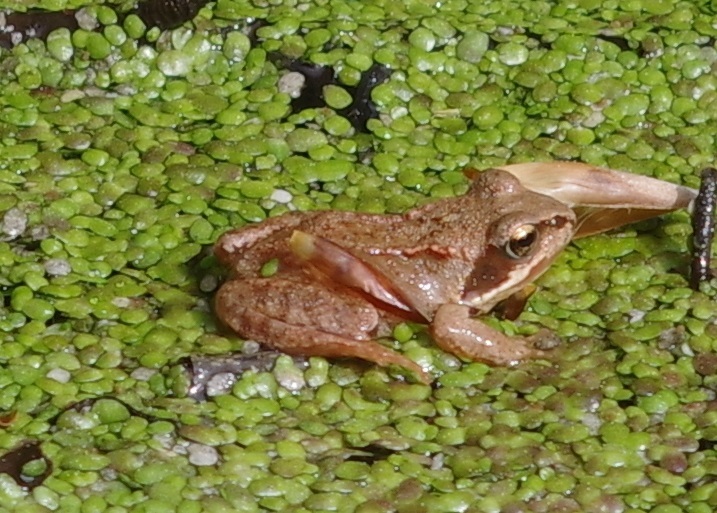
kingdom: Animalia
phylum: Chordata
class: Amphibia
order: Anura
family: Ranidae
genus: Rana
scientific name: Rana temporaria
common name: Common frog
